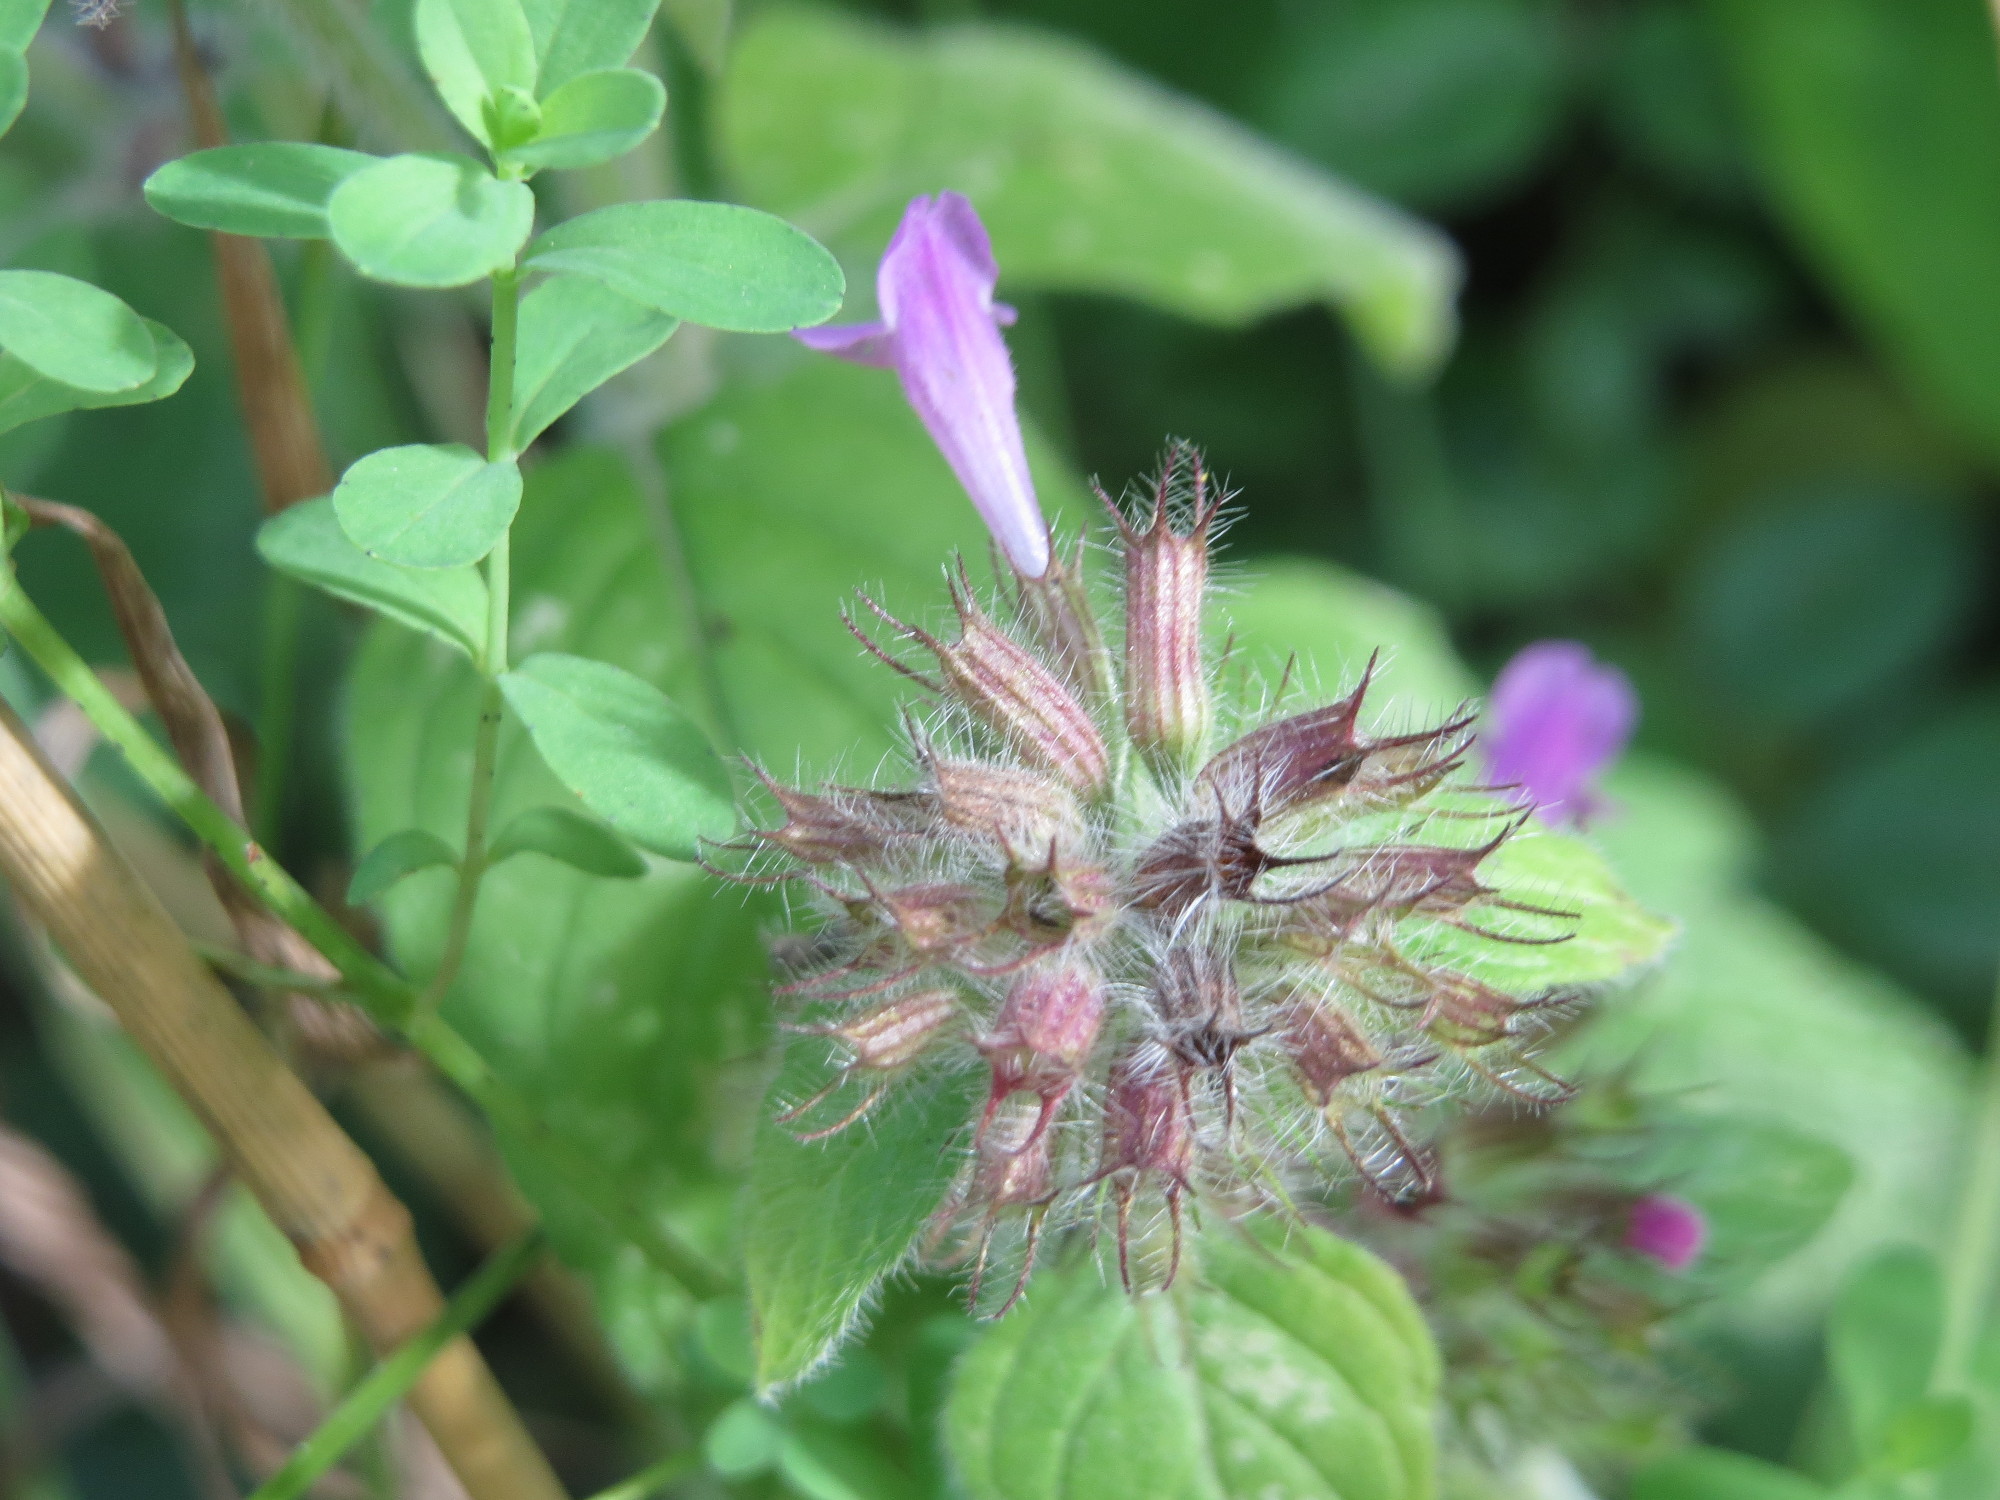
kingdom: Plantae
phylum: Tracheophyta
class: Magnoliopsida
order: Lamiales
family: Lamiaceae
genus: Clinopodium
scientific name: Clinopodium vulgare
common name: Wild basil
